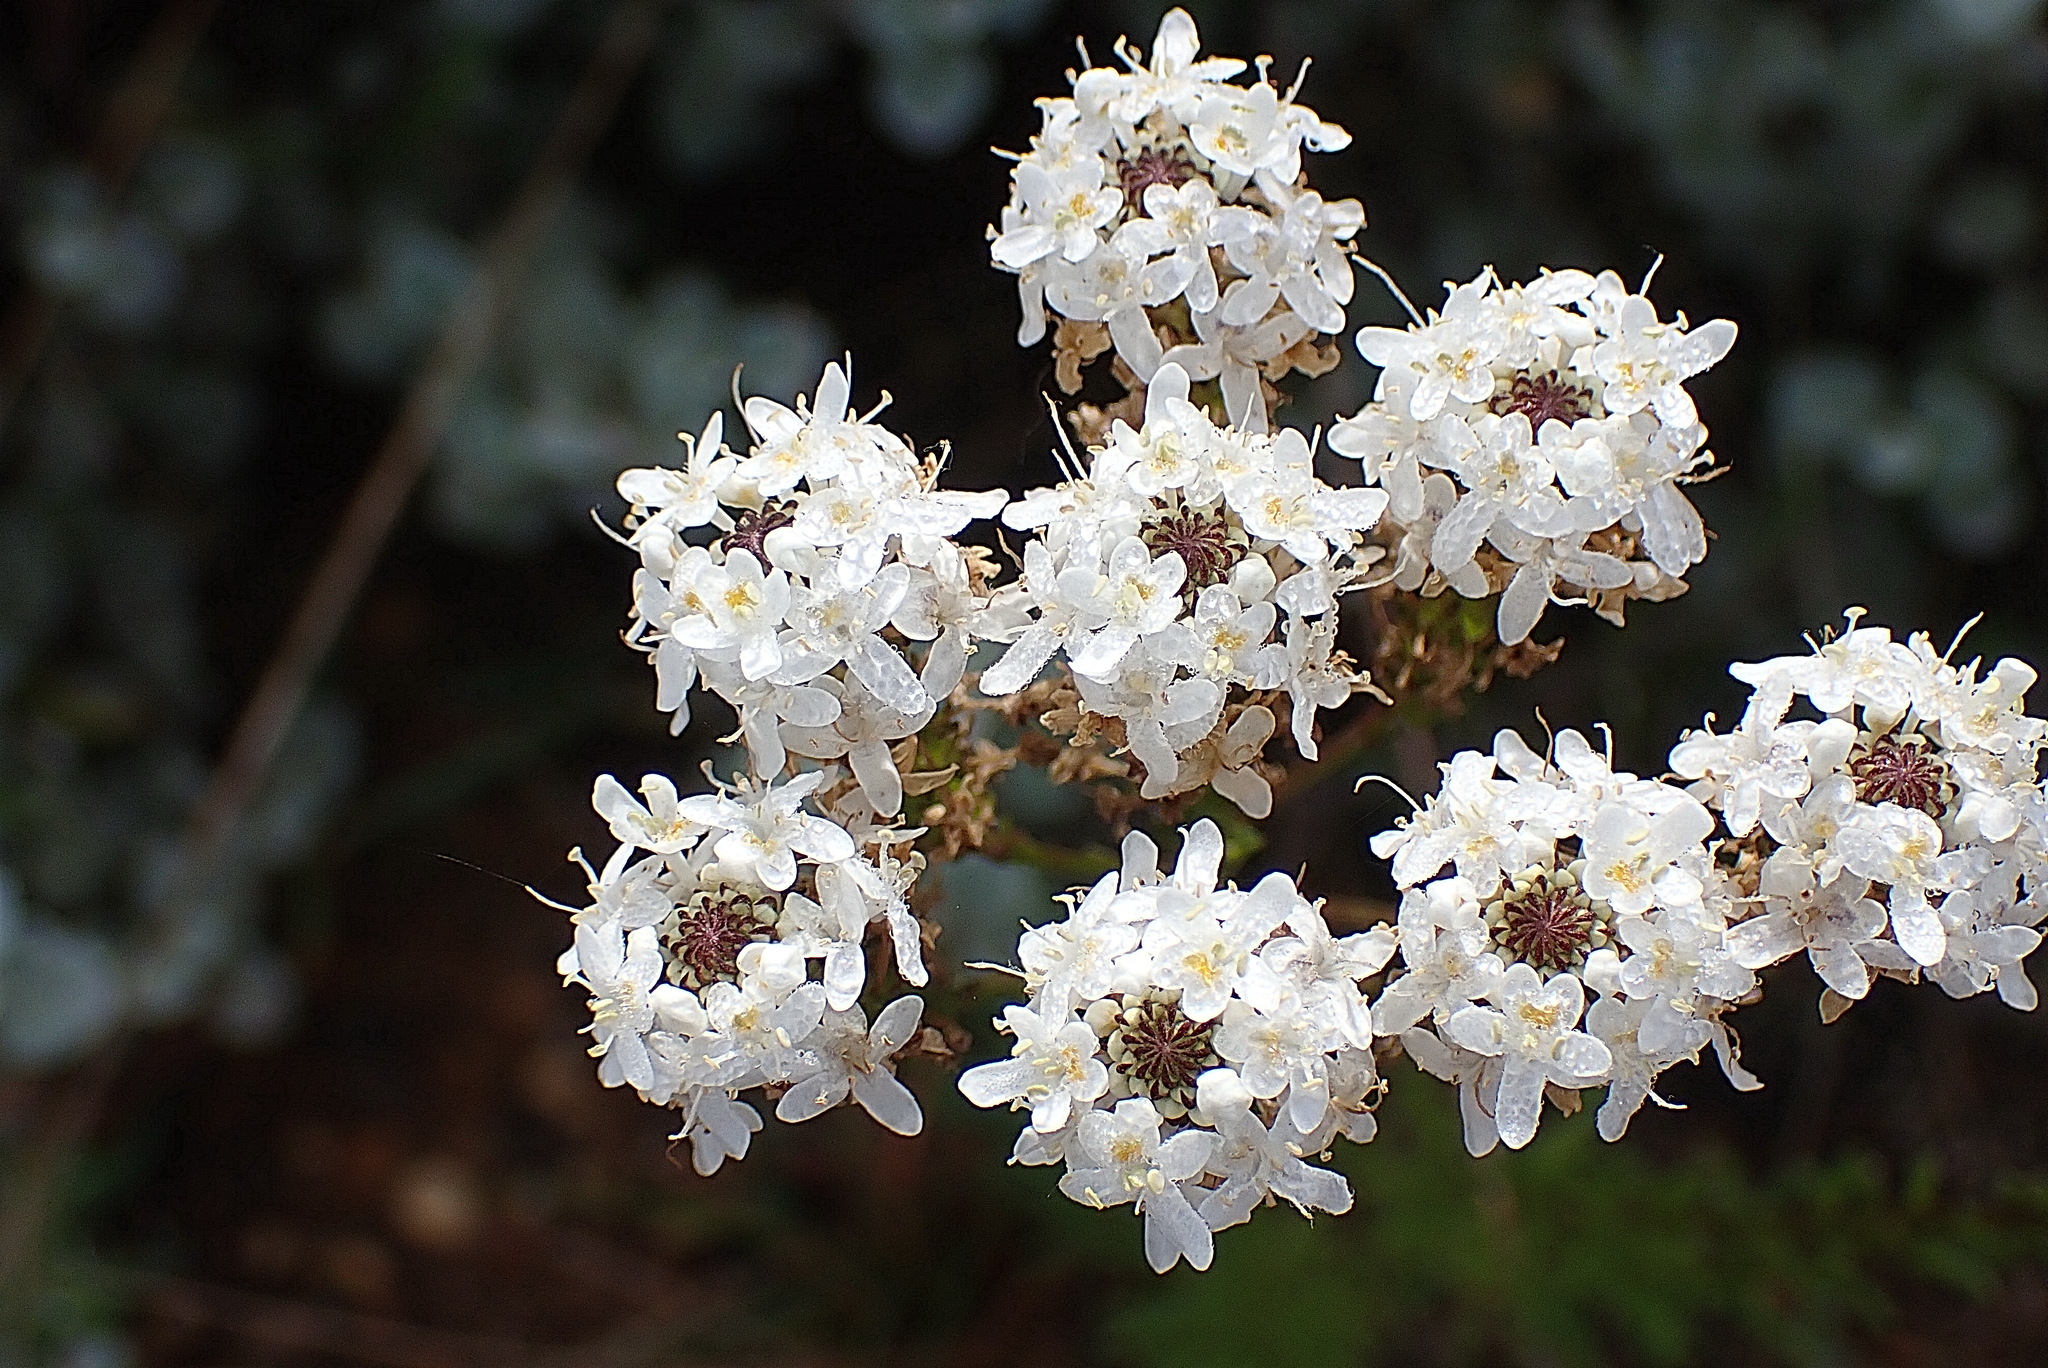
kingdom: Plantae
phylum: Tracheophyta
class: Magnoliopsida
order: Lamiales
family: Scrophulariaceae
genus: Pseudoselago
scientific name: Pseudoselago outeniquensis
